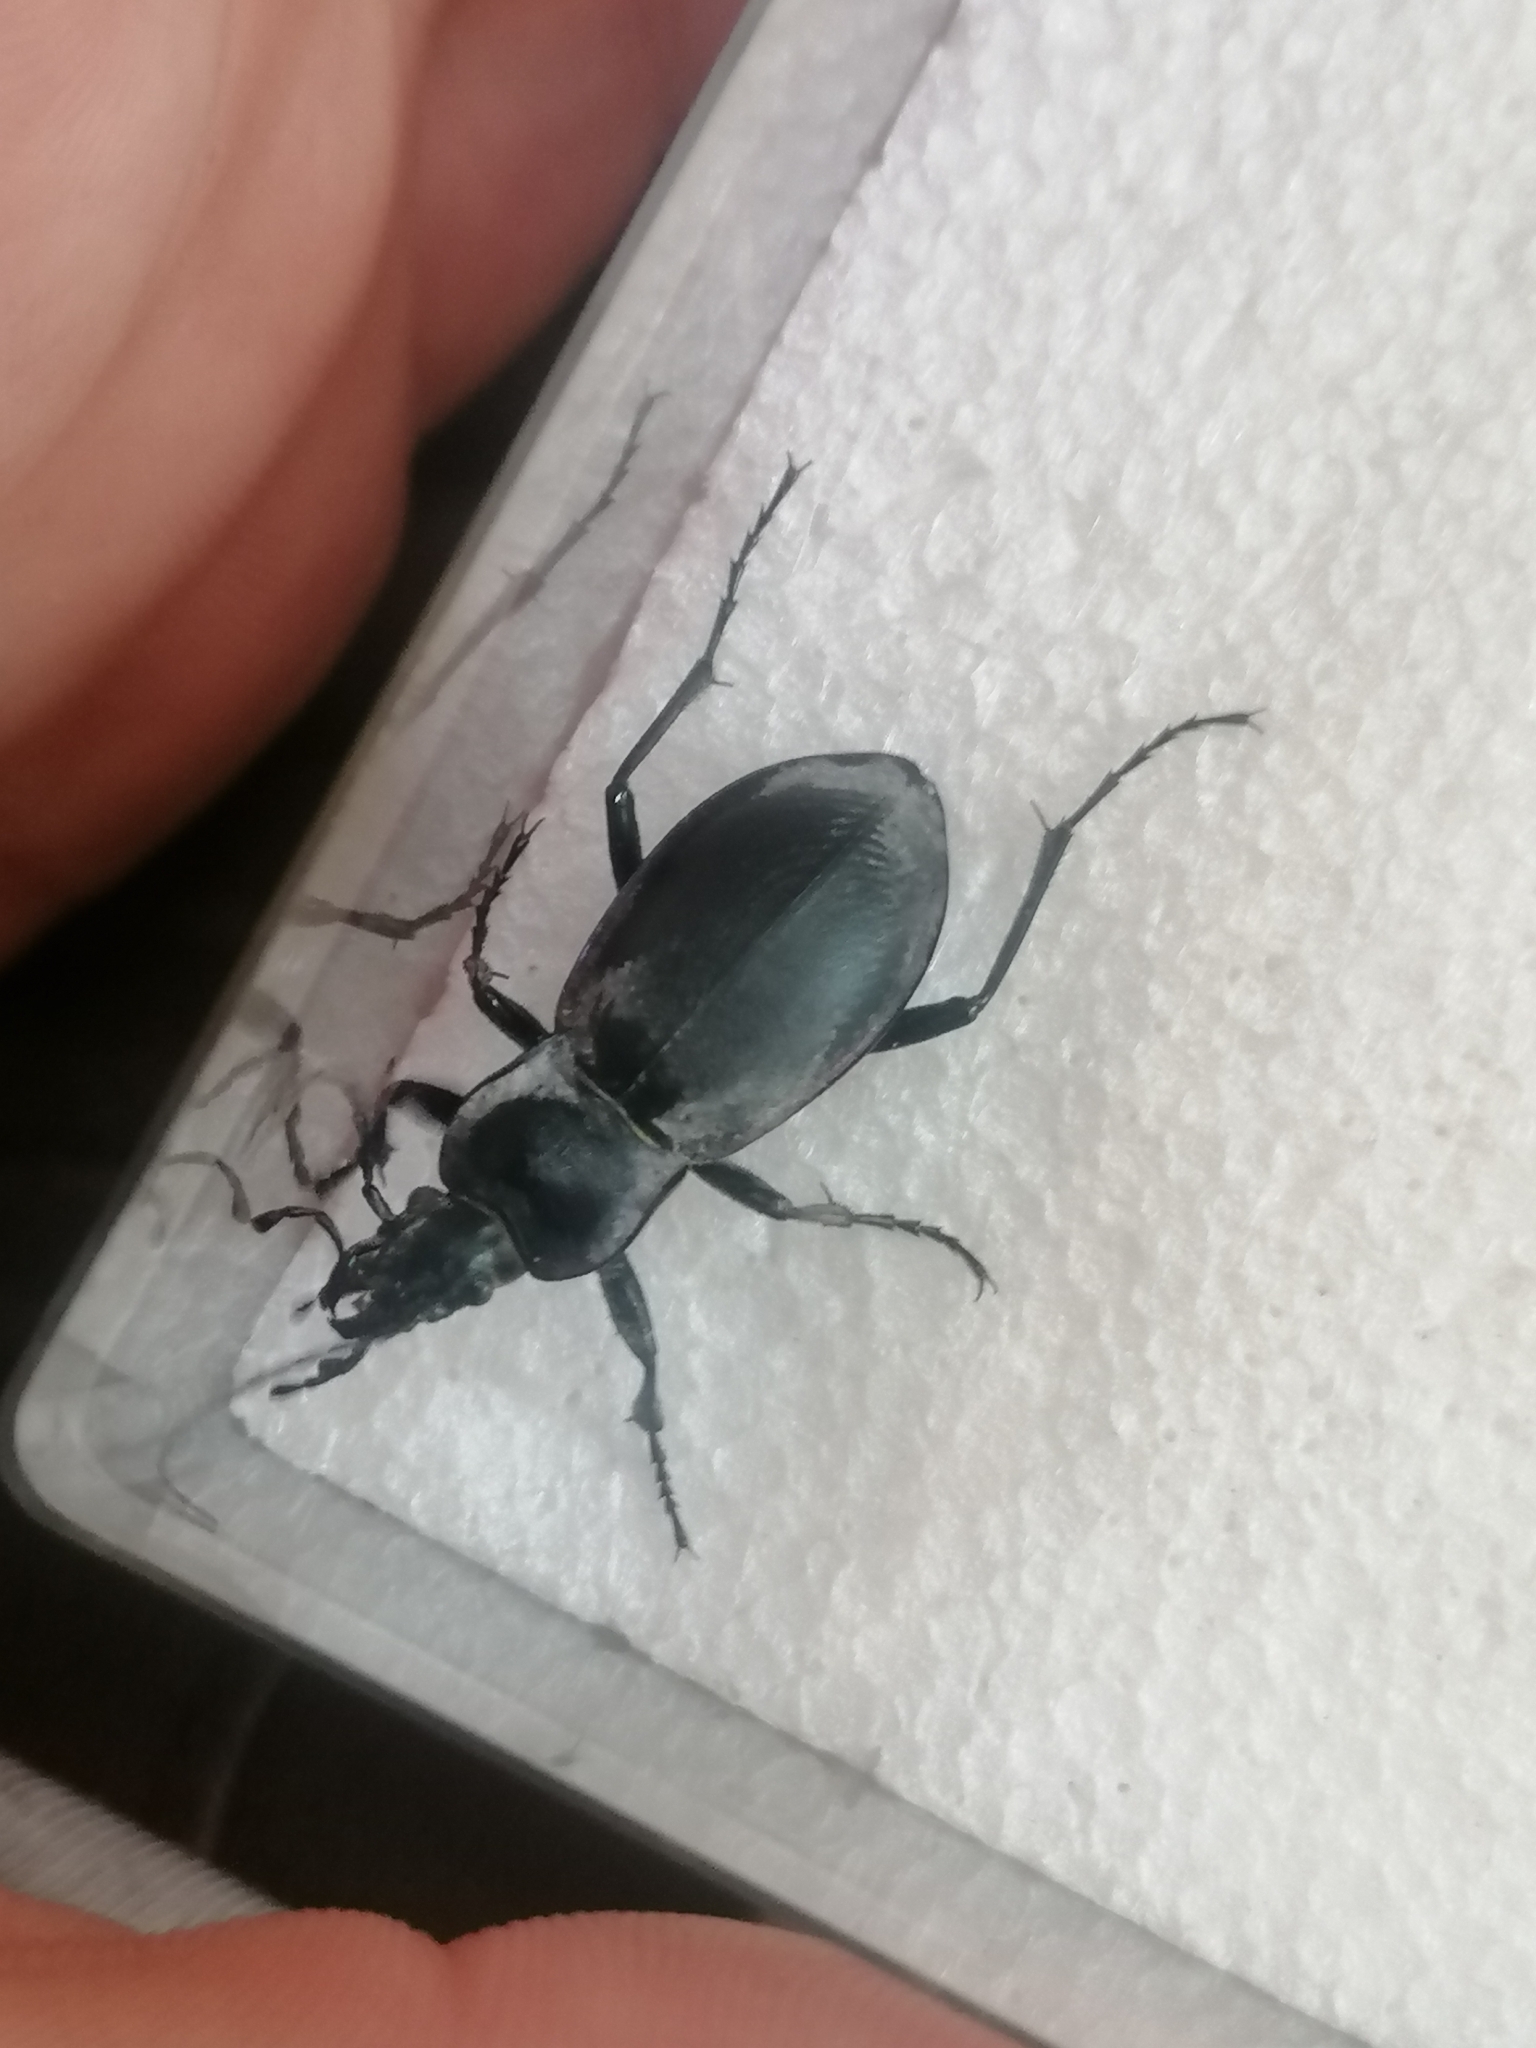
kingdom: Animalia
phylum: Arthropoda
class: Insecta
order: Coleoptera
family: Carabidae
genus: Carabus
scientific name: Carabus glabratus
